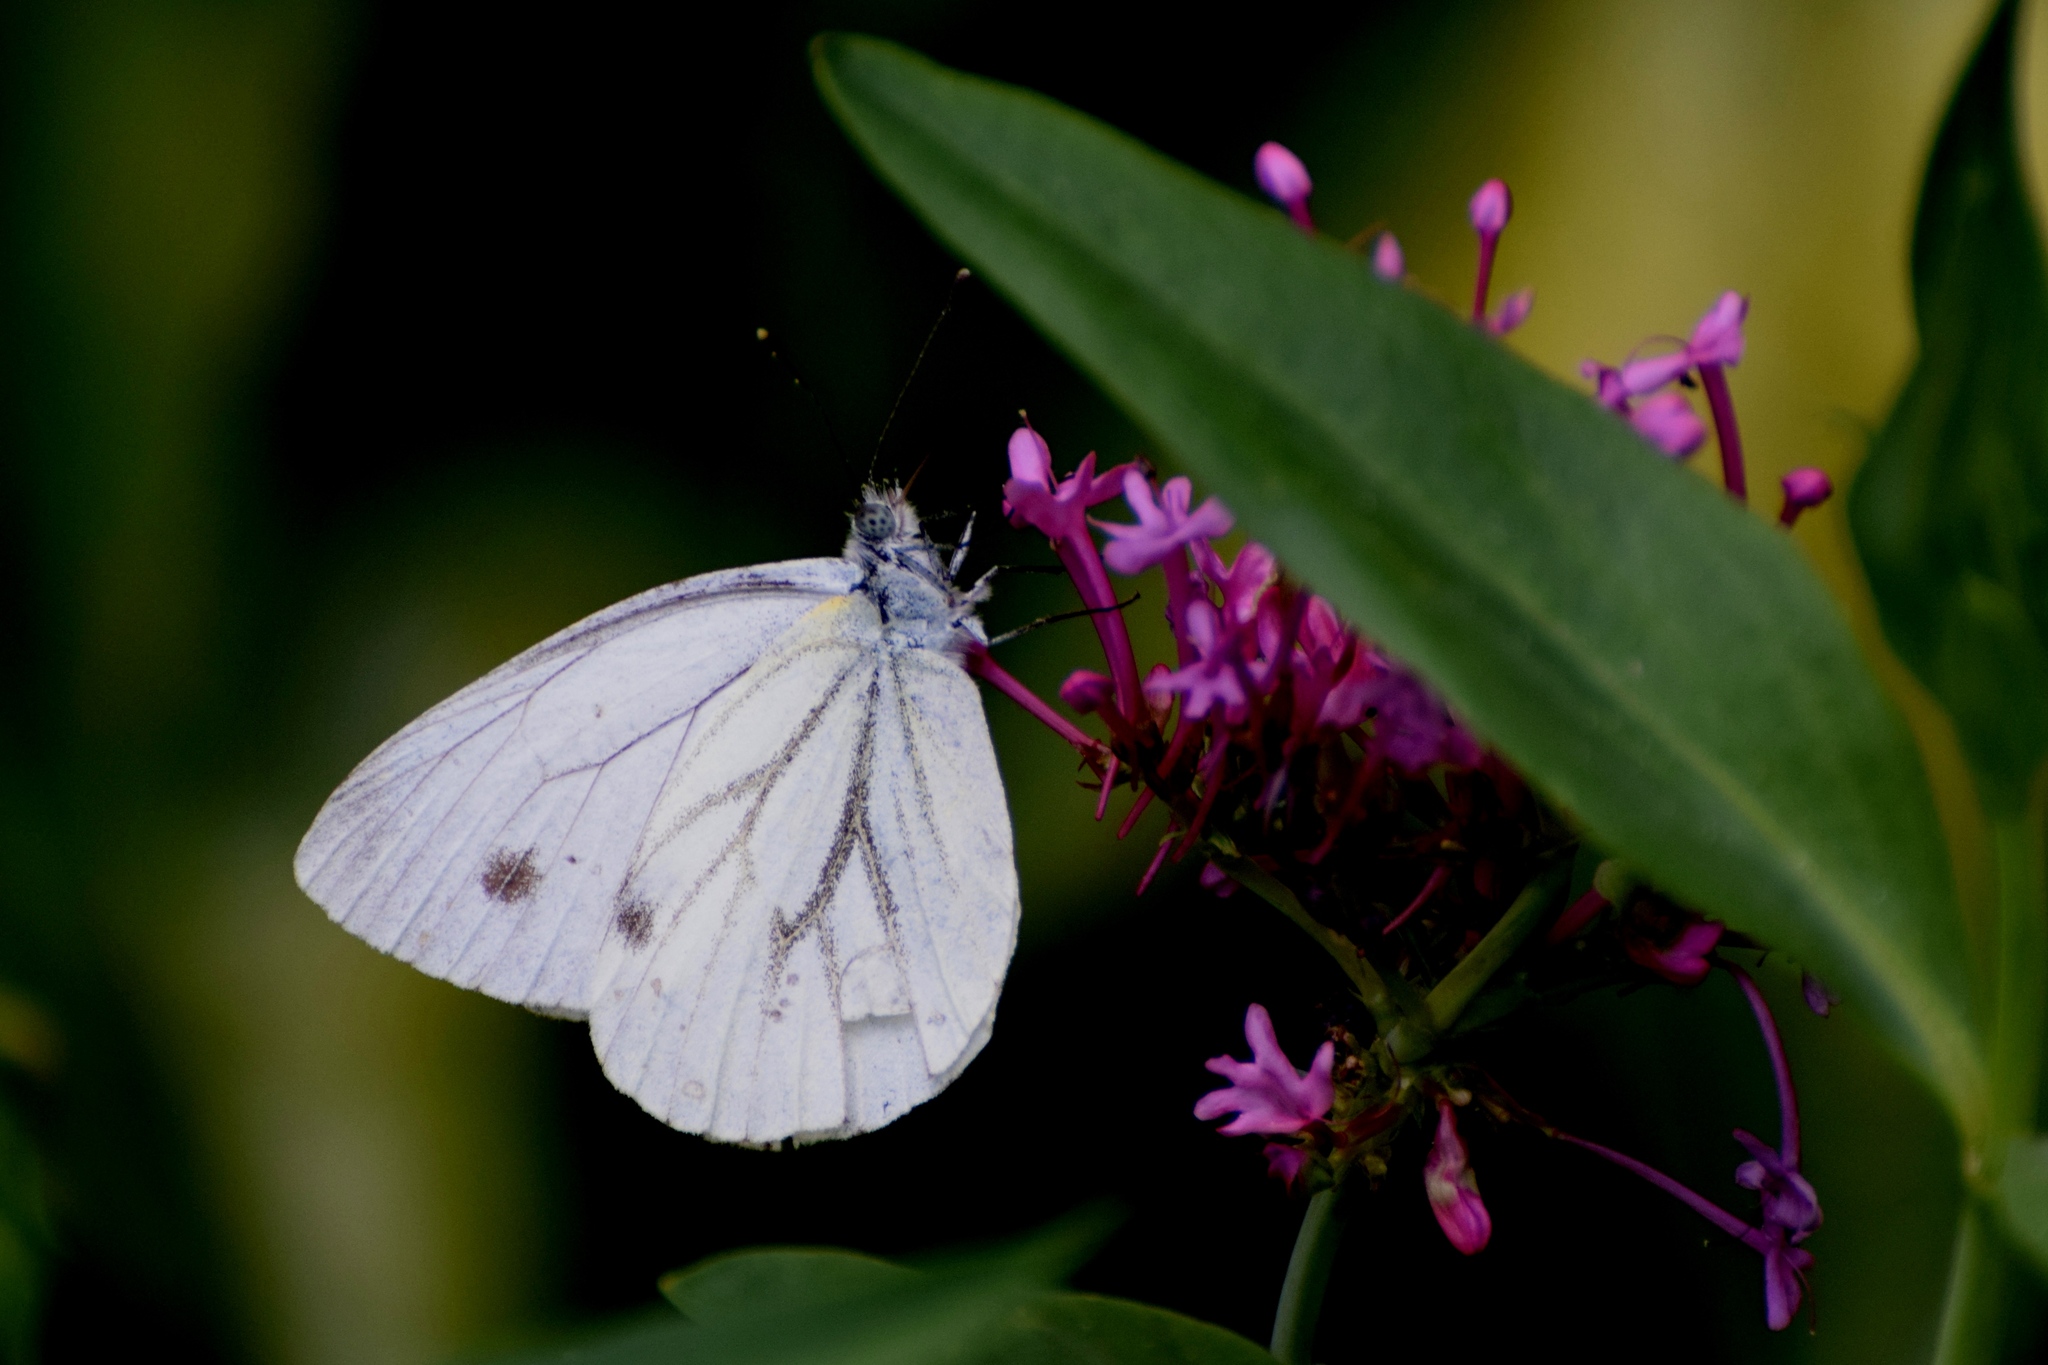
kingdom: Animalia
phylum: Arthropoda
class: Insecta
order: Lepidoptera
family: Pieridae
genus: Pieris
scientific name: Pieris napi
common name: Green-veined white
